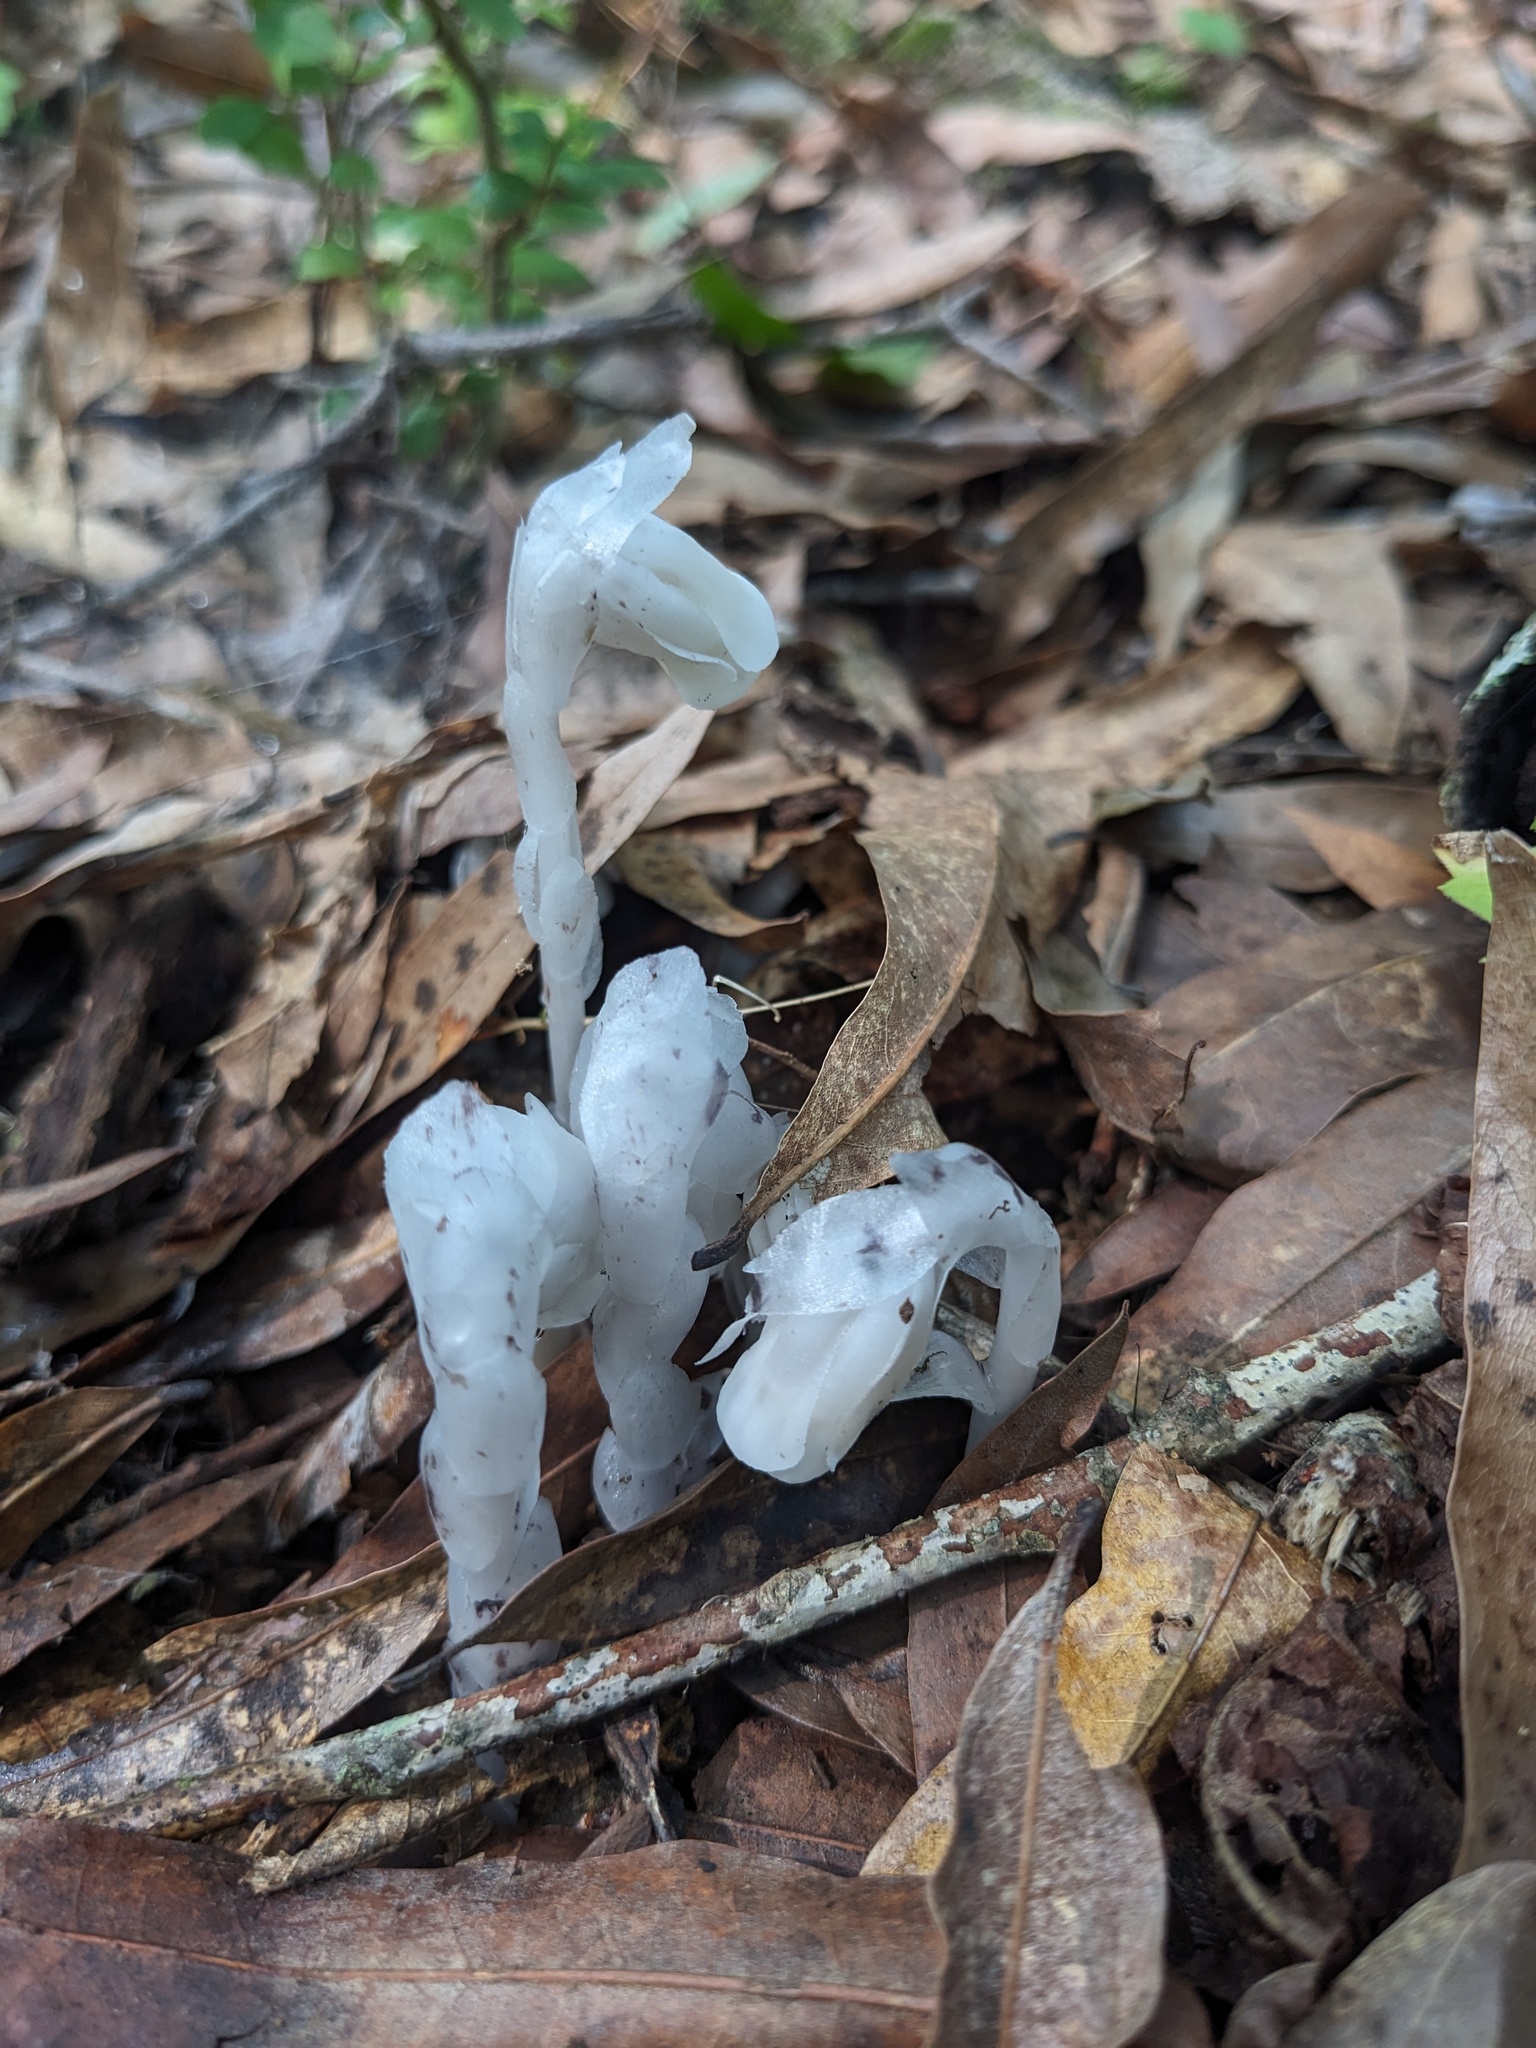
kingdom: Plantae
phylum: Tracheophyta
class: Magnoliopsida
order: Ericales
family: Ericaceae
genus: Monotropa
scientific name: Monotropa uniflora
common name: Convulsion root
